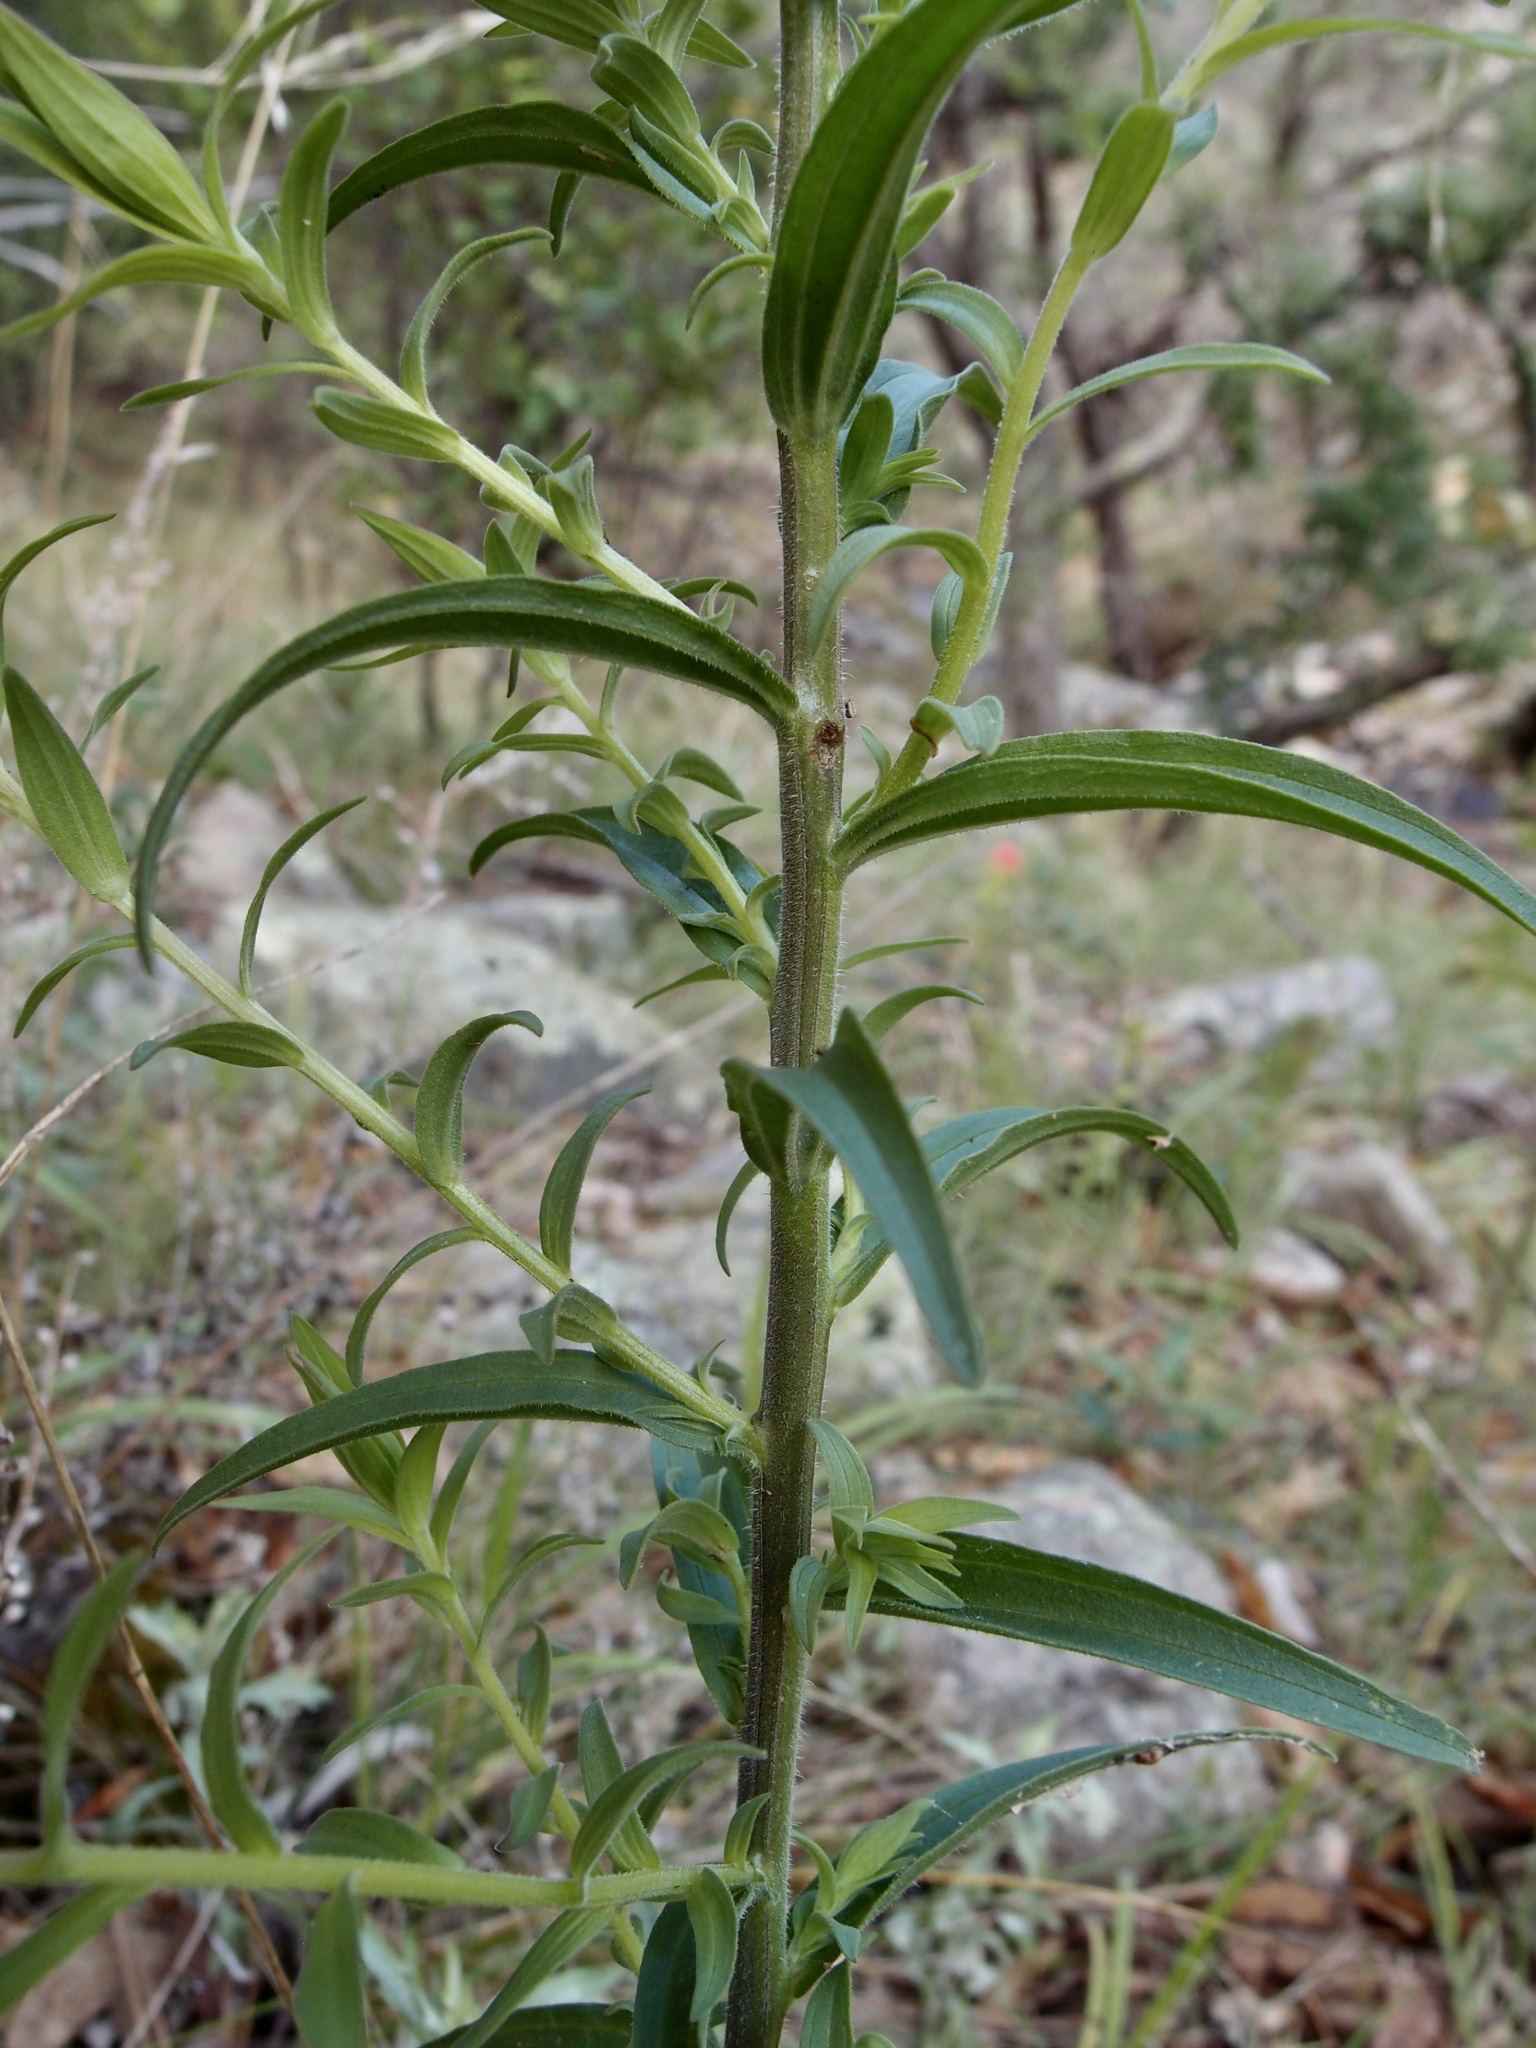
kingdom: Plantae
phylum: Tracheophyta
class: Magnoliopsida
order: Lamiales
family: Orobanchaceae
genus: Castilleja
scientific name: Castilleja nelsonii
